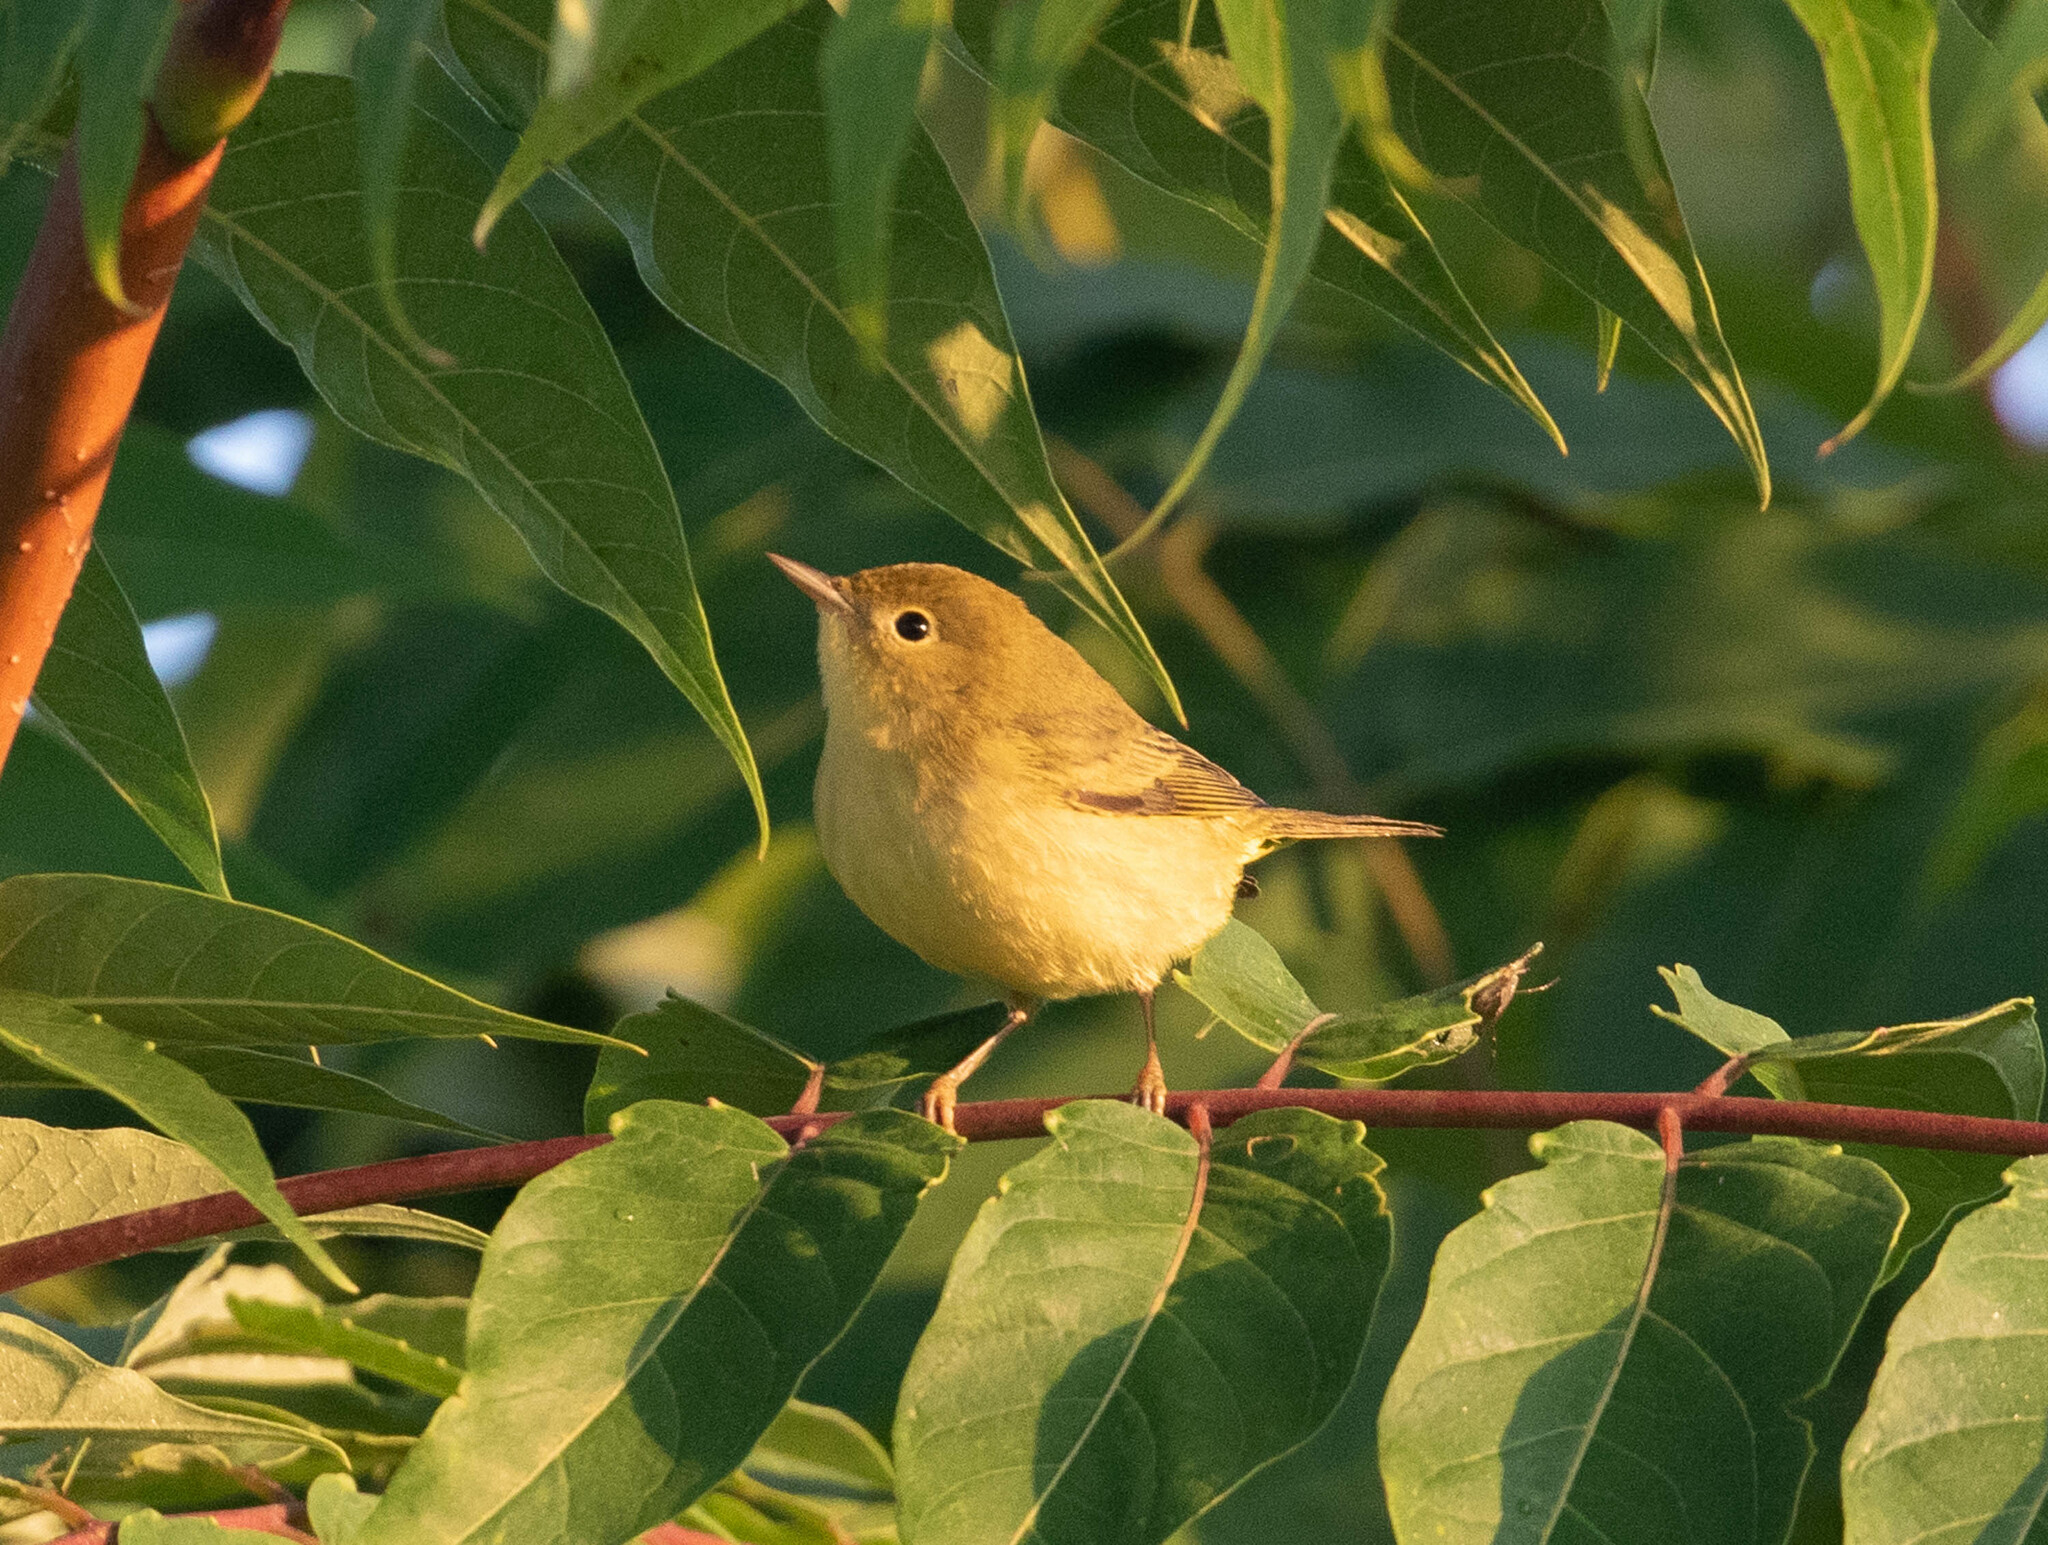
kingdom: Animalia
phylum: Chordata
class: Aves
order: Passeriformes
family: Parulidae
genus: Setophaga
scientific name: Setophaga petechia
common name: Yellow warbler
